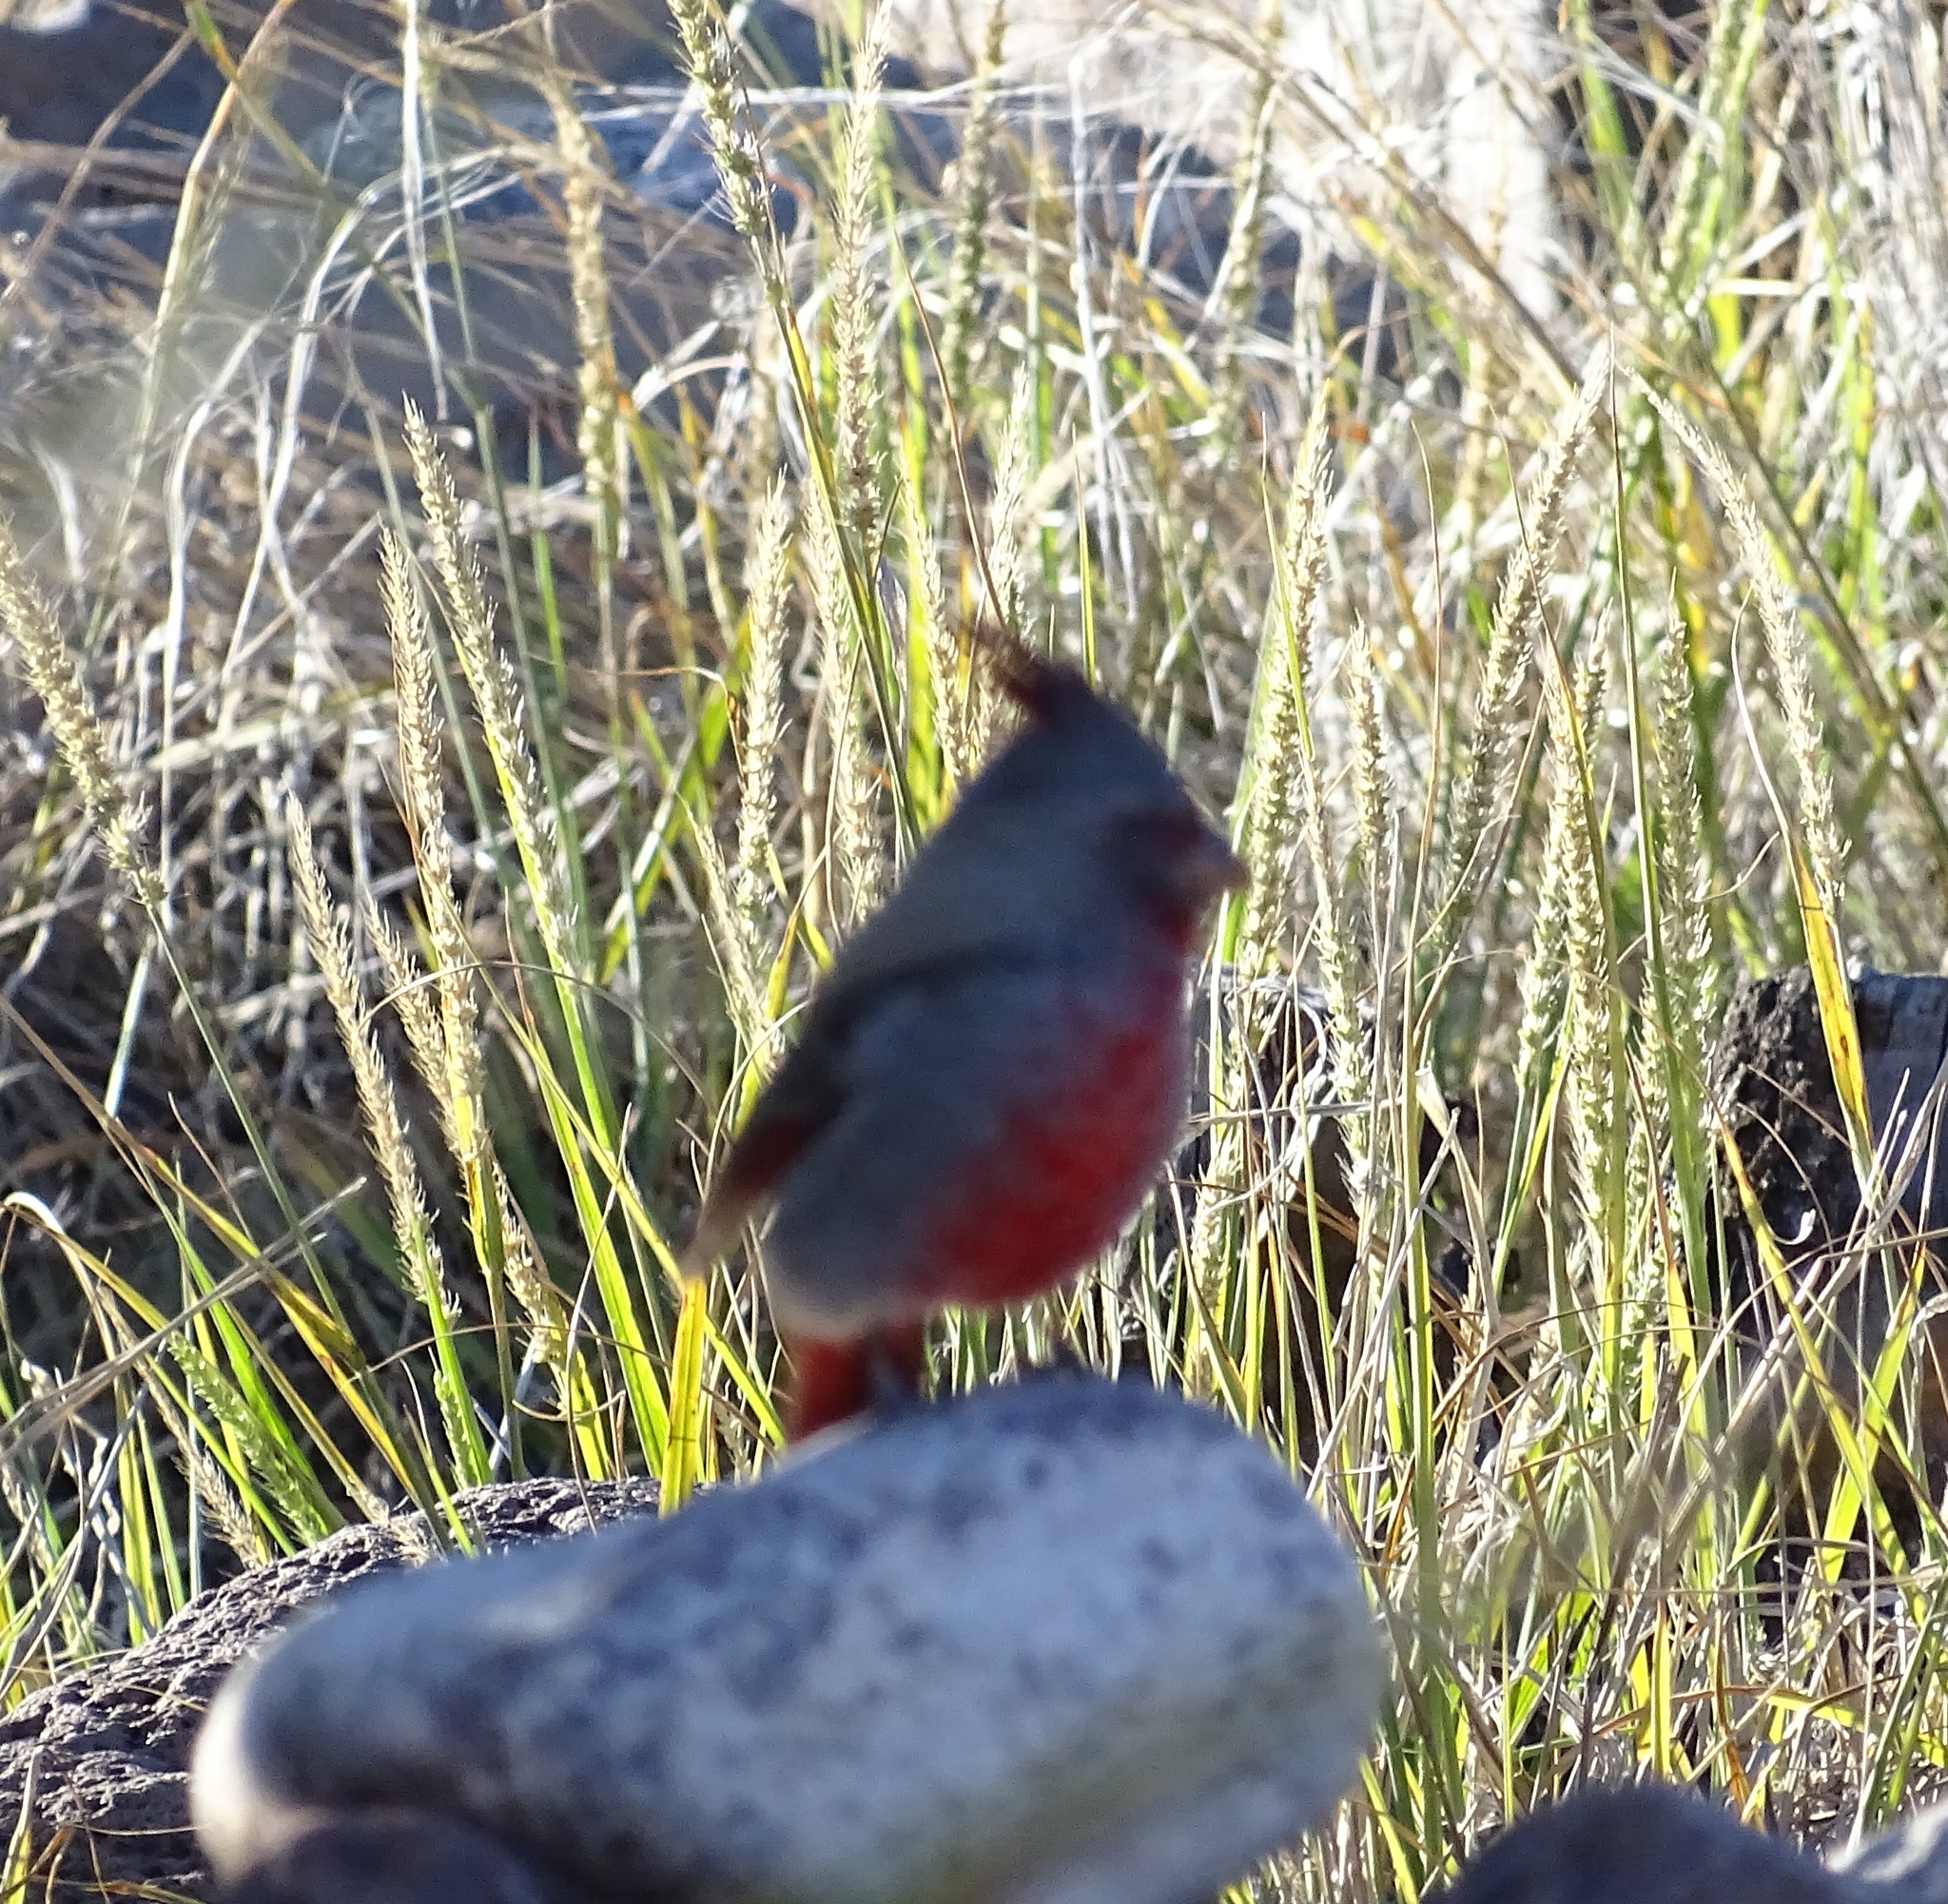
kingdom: Animalia
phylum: Chordata
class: Aves
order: Passeriformes
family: Cardinalidae
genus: Cardinalis
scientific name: Cardinalis sinuatus
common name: Pyrrhuloxia
